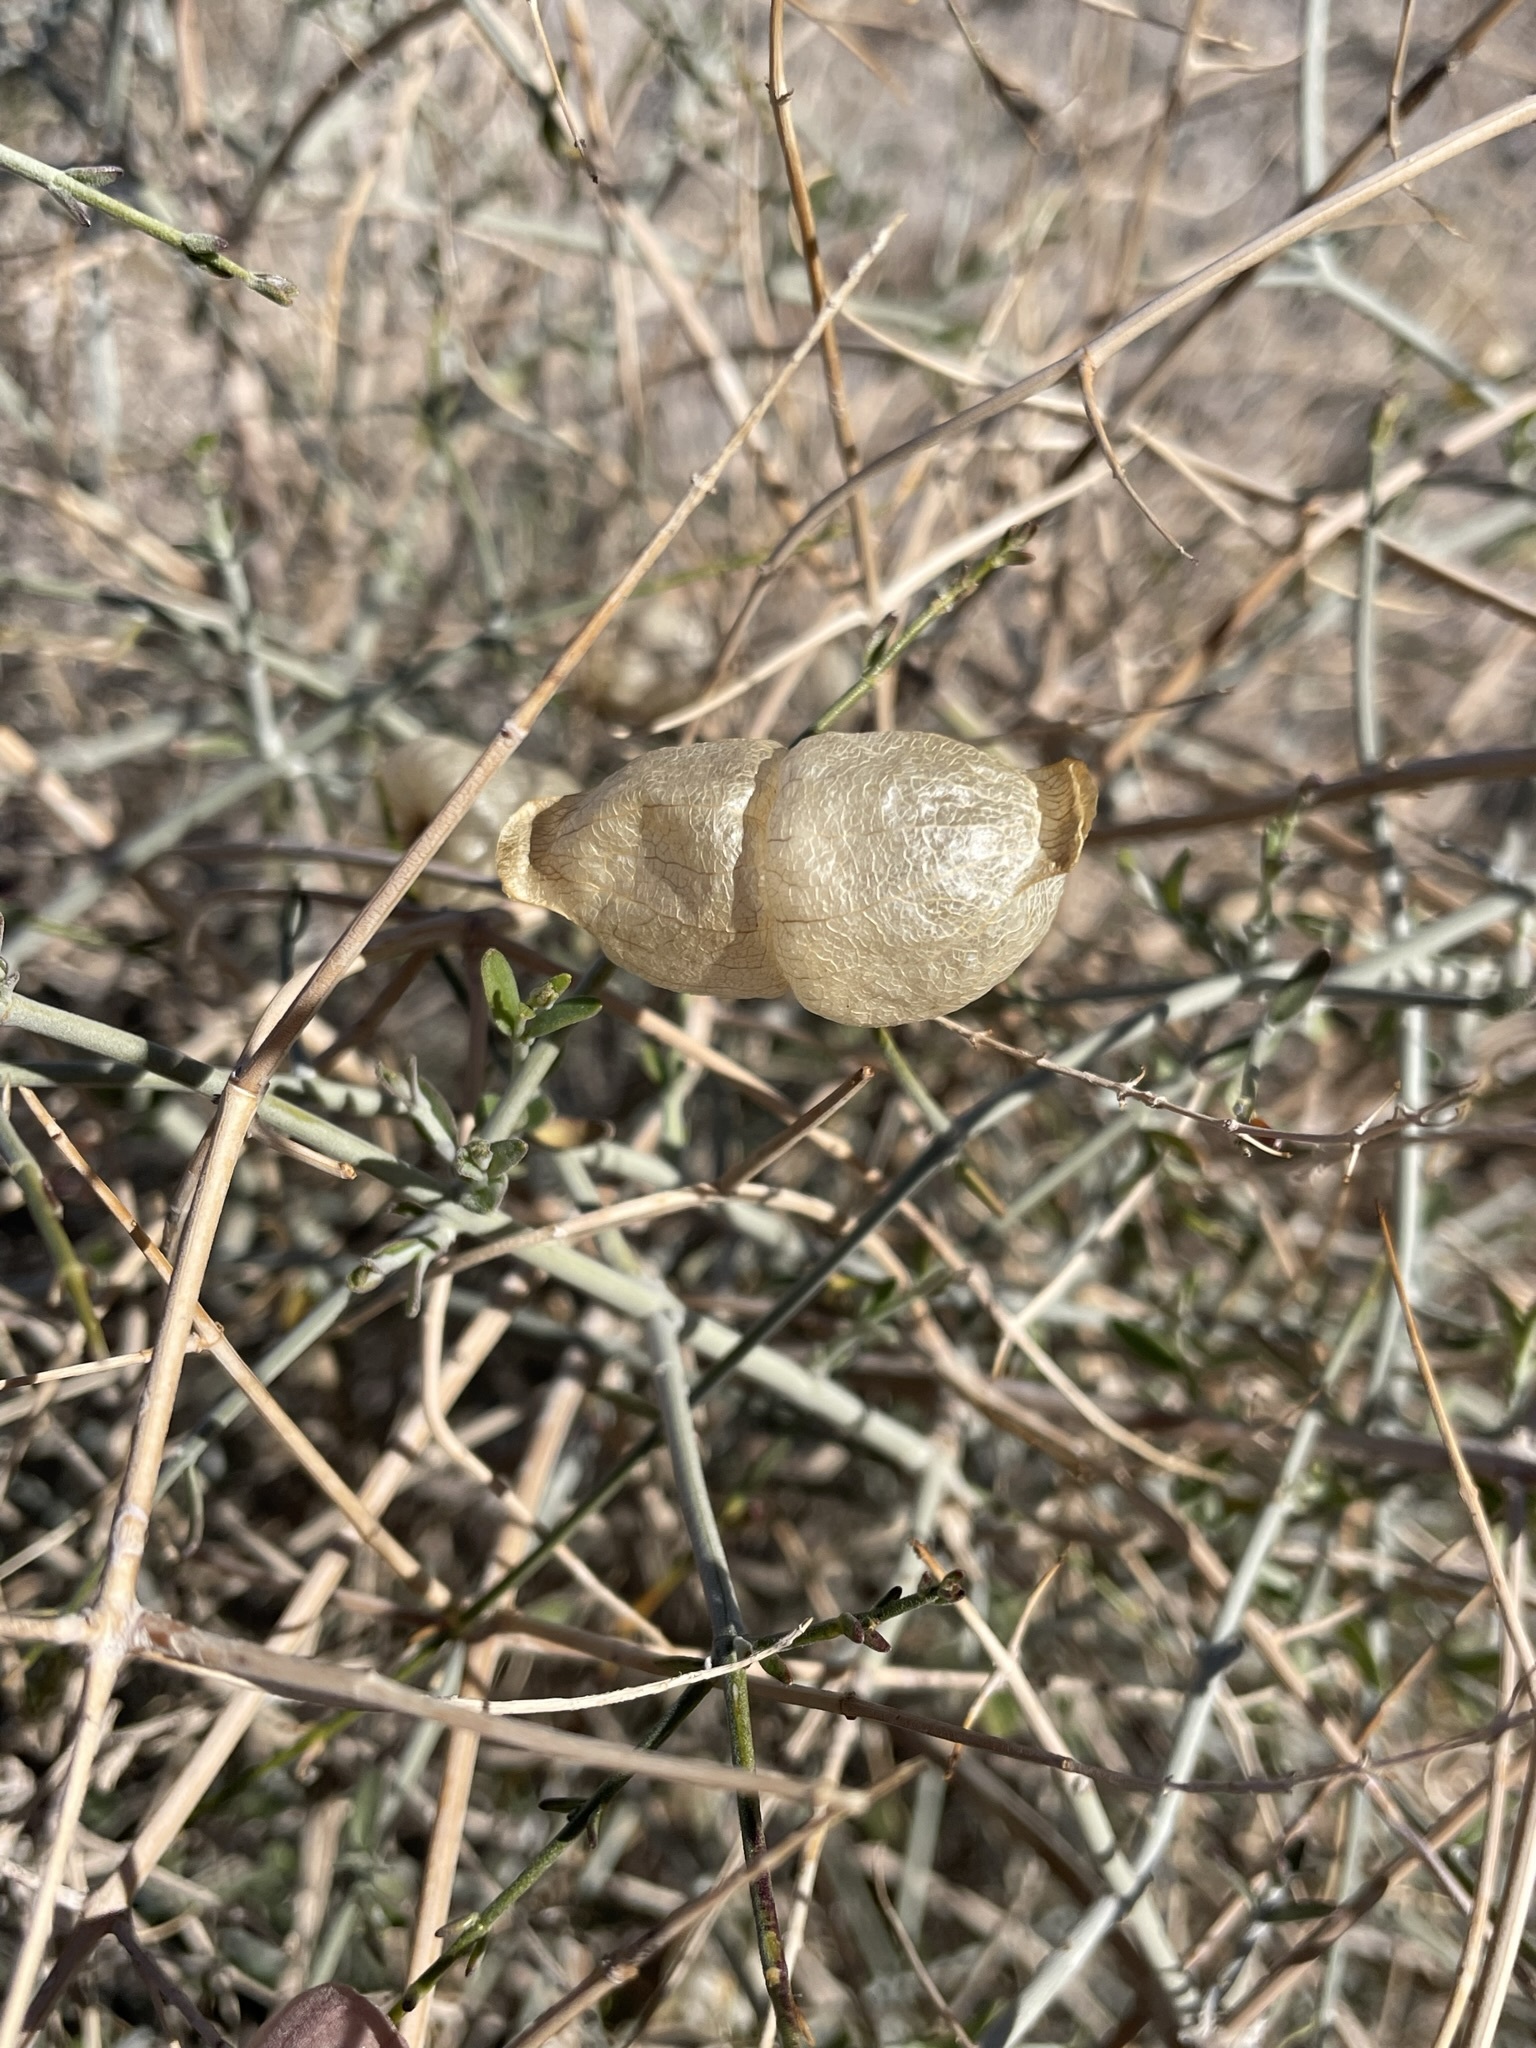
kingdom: Plantae
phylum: Tracheophyta
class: Magnoliopsida
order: Lamiales
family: Lamiaceae
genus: Scutellaria
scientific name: Scutellaria mexicana
